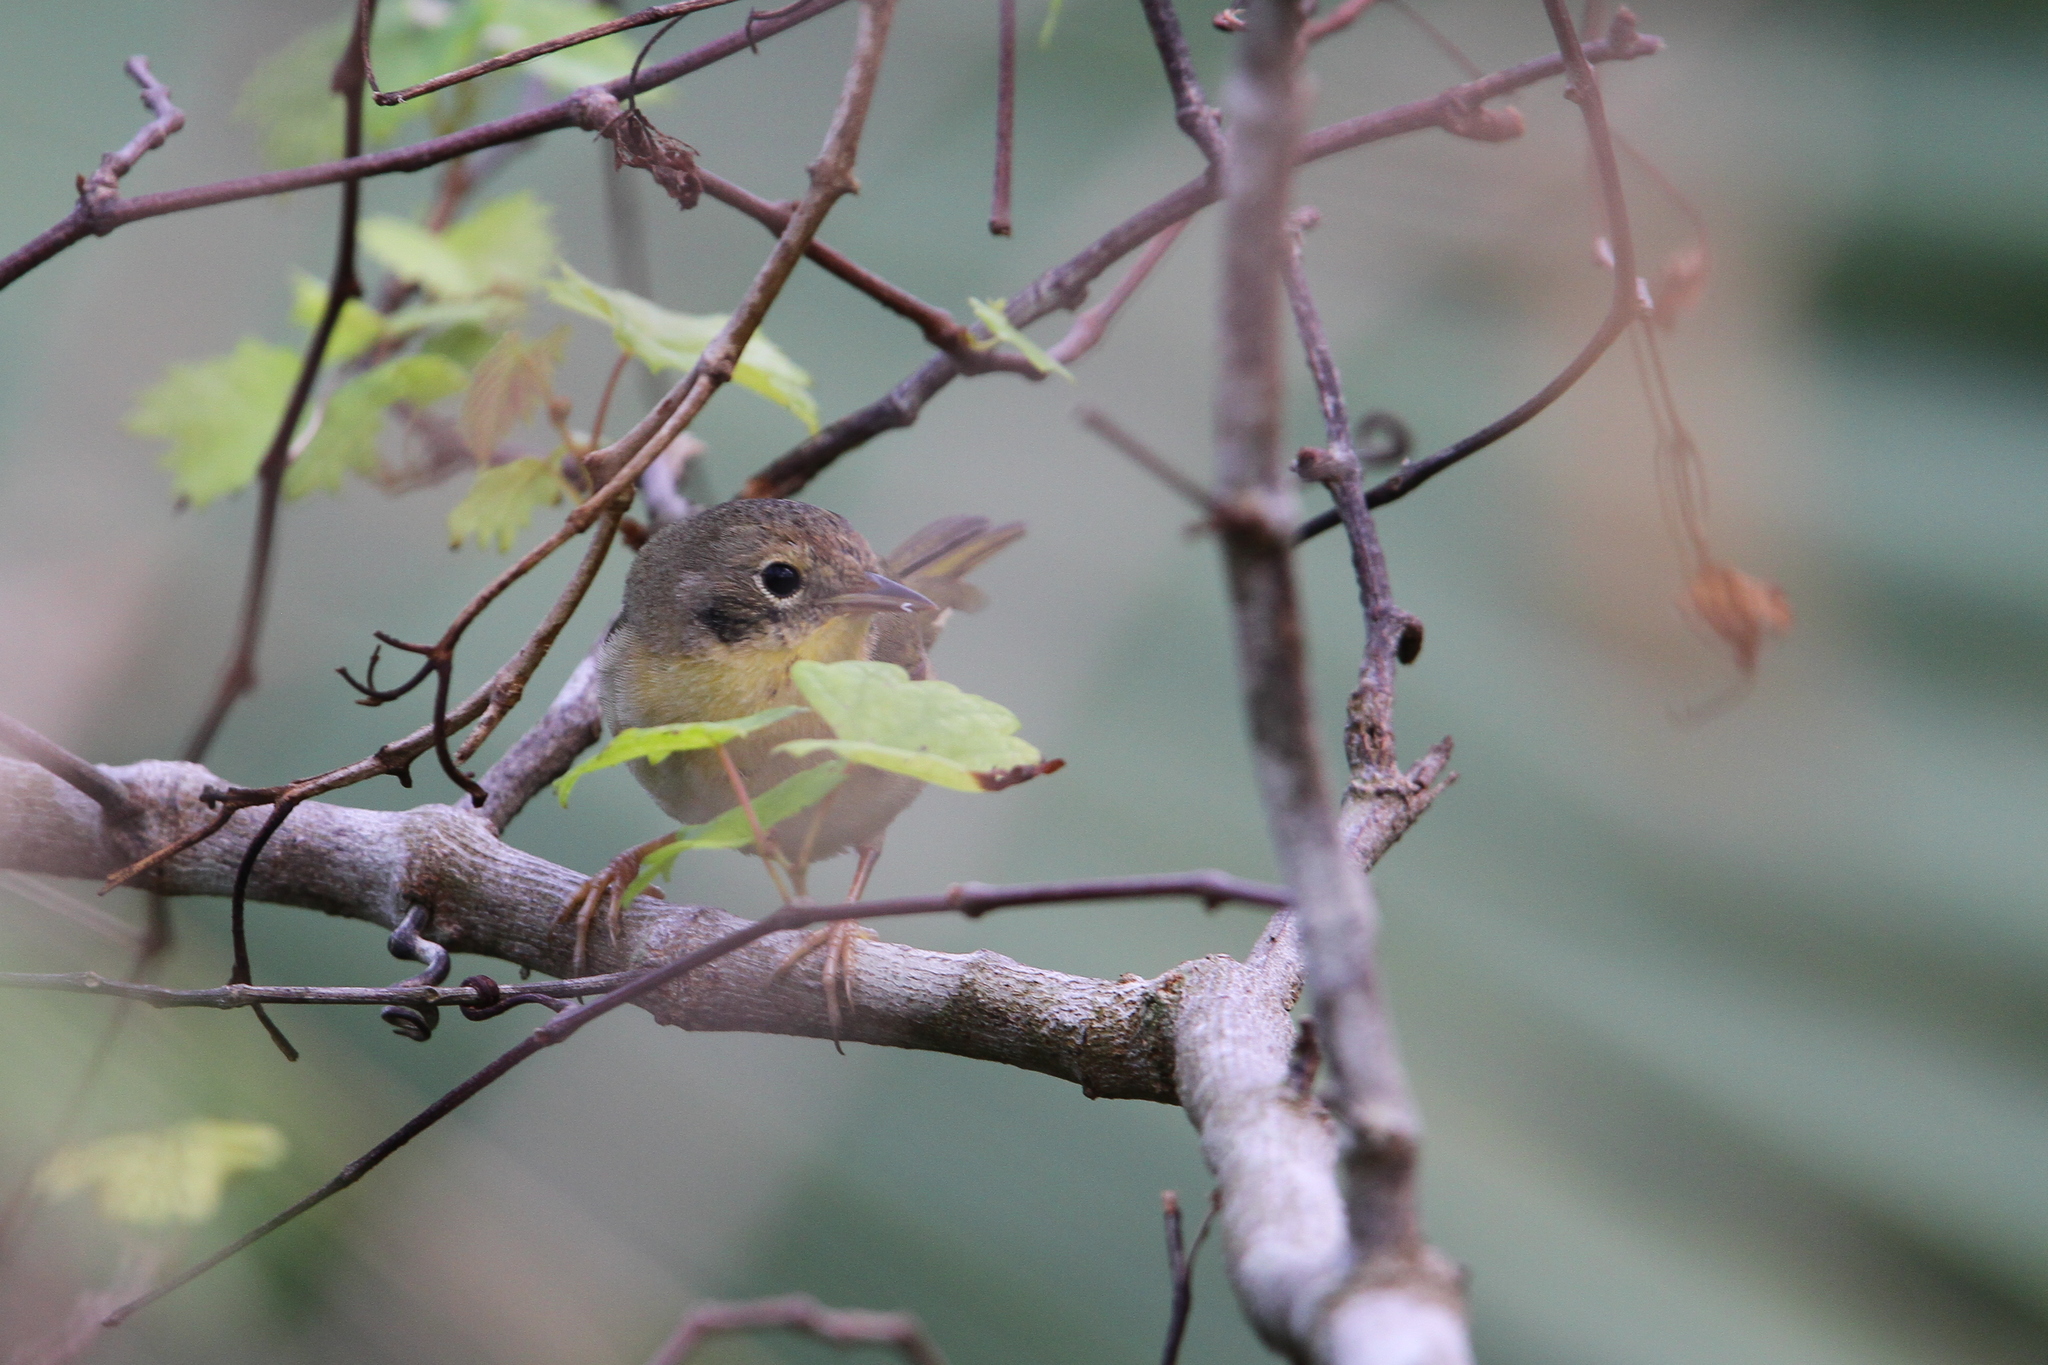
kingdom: Animalia
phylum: Chordata
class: Aves
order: Passeriformes
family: Parulidae
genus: Geothlypis
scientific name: Geothlypis trichas
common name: Common yellowthroat
